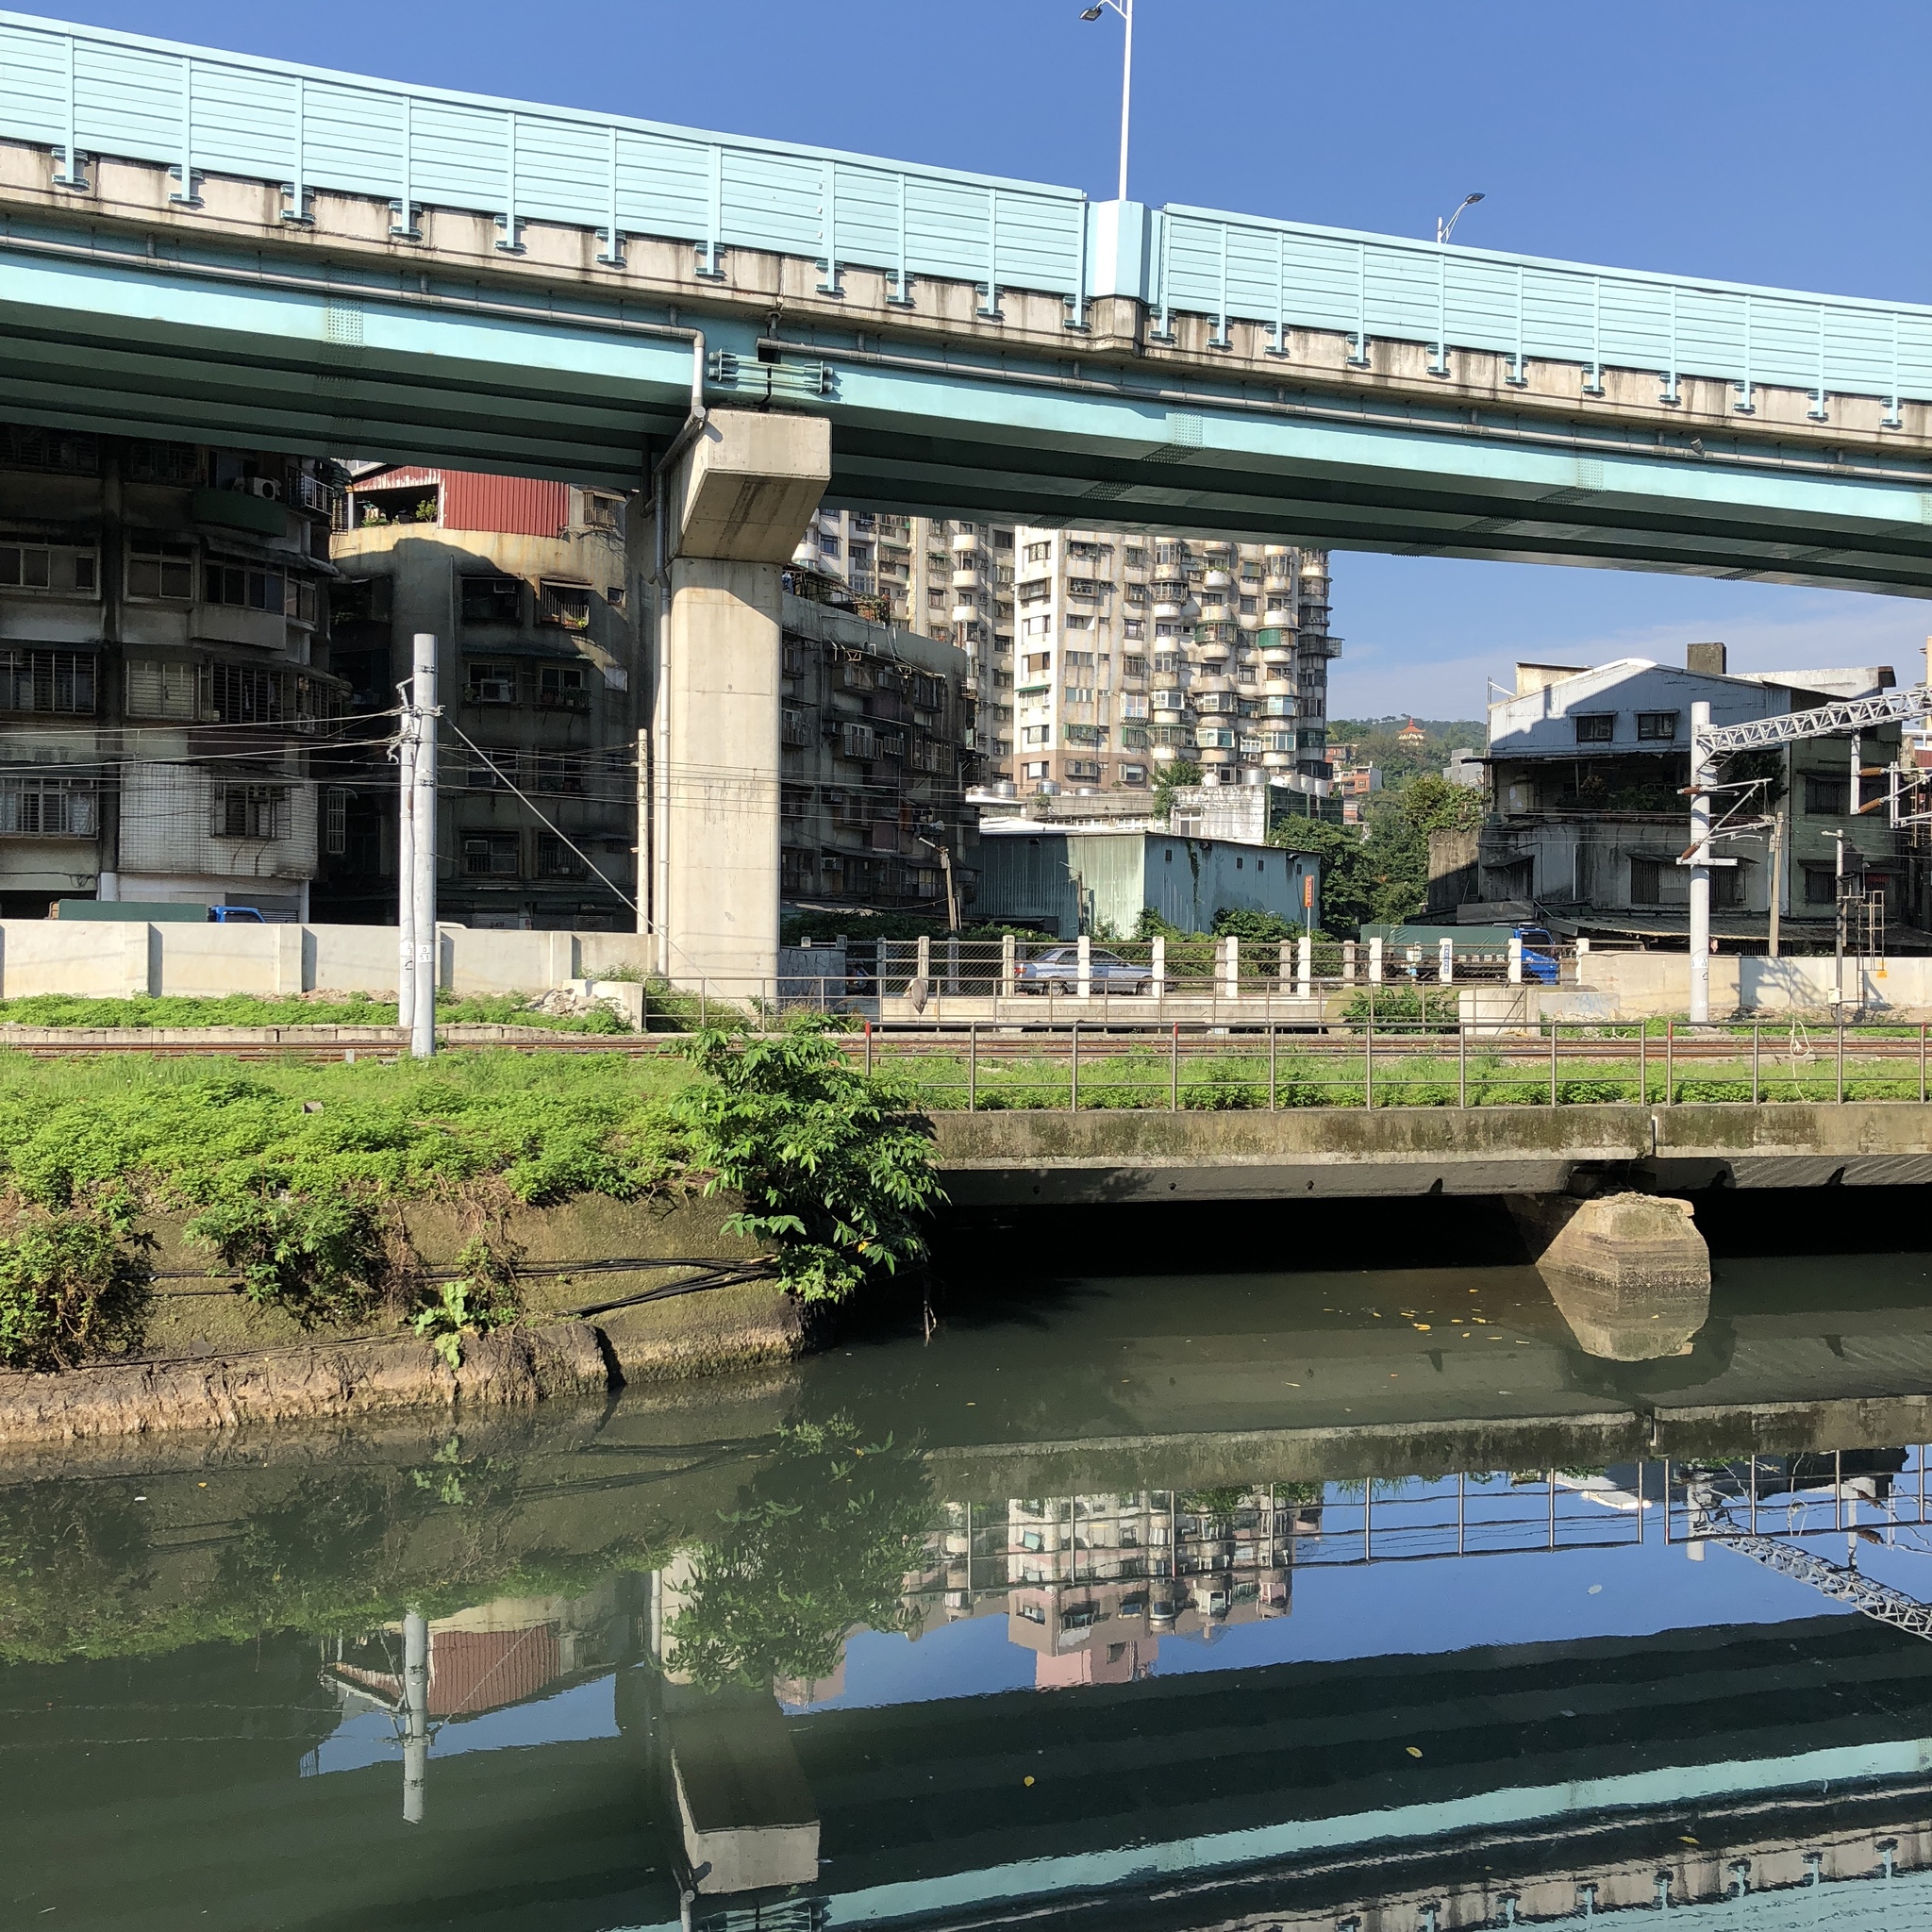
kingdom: Animalia
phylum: Chordata
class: Aves
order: Pelecaniformes
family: Ardeidae
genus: Ardea
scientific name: Ardea cinerea
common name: Grey heron
